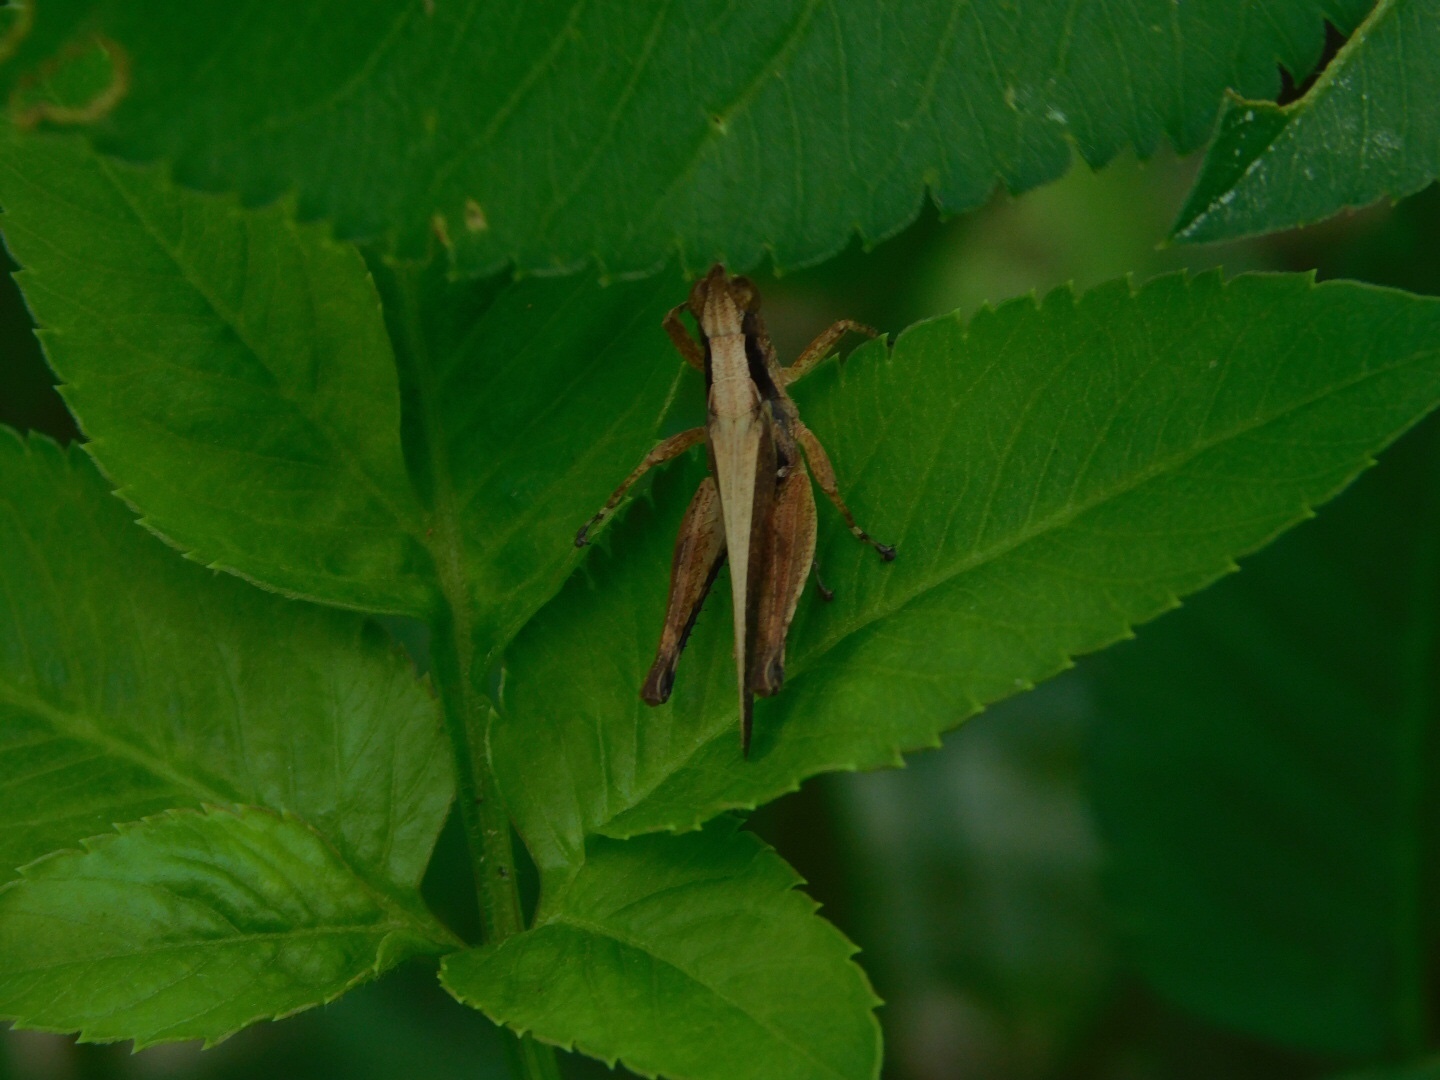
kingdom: Animalia
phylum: Arthropoda
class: Insecta
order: Orthoptera
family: Acrididae
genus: Orphulella
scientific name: Orphulella punctata
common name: Slant-faced grasshopper
